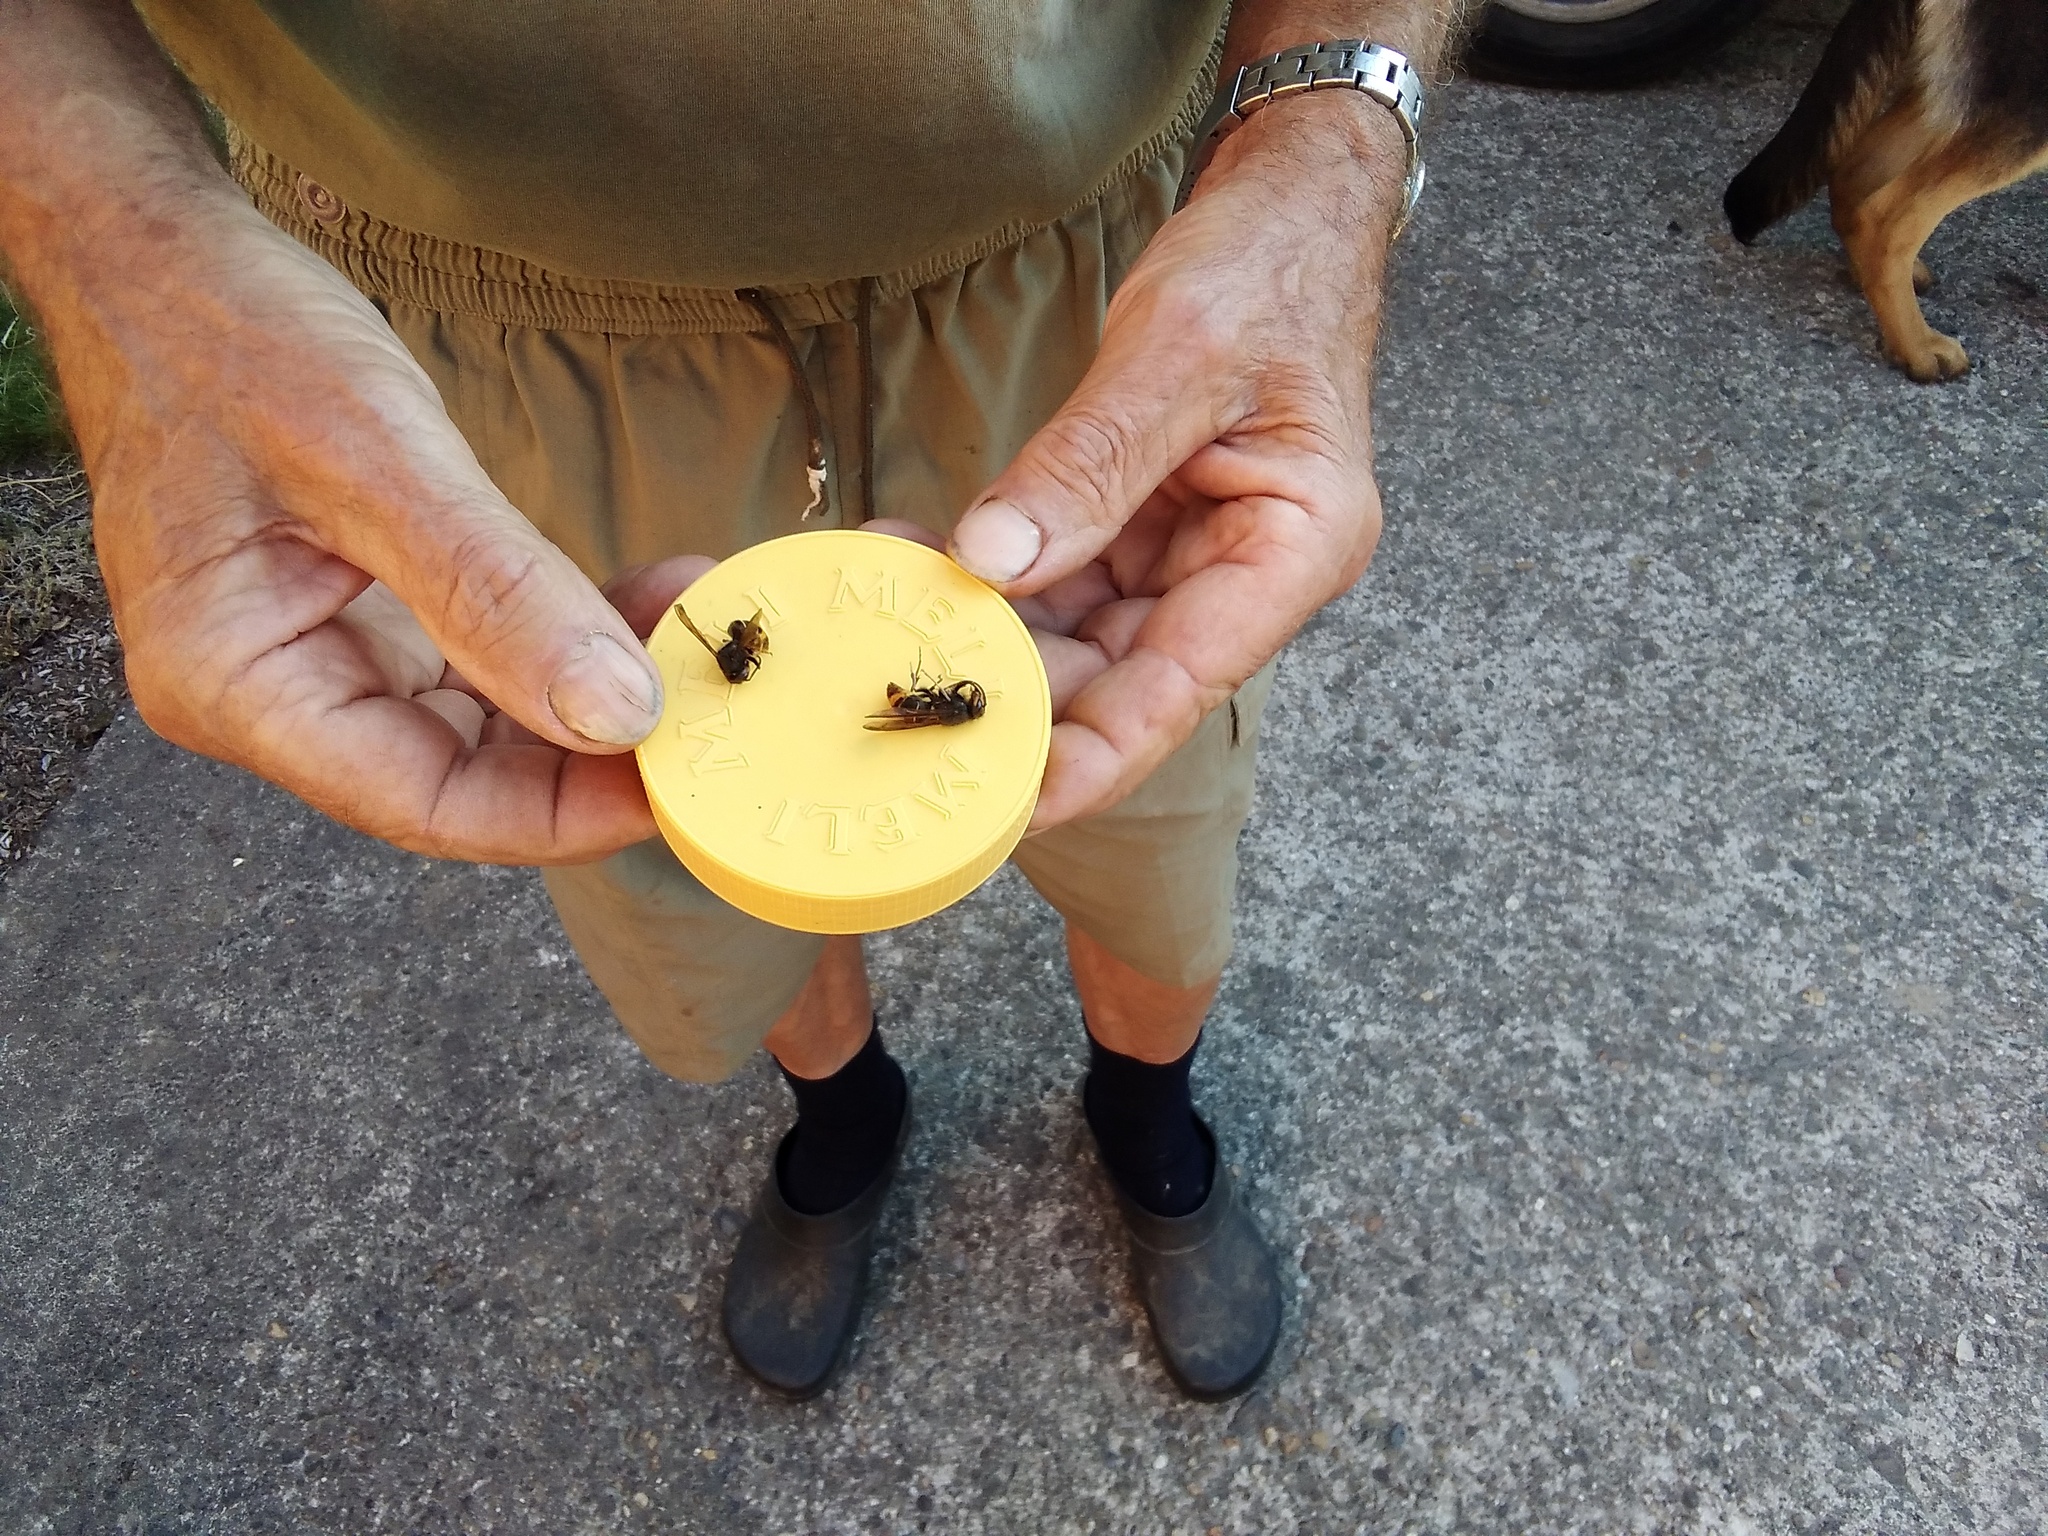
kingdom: Animalia
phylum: Arthropoda
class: Insecta
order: Hymenoptera
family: Vespidae
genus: Vespa
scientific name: Vespa velutina
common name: Asian hornet
